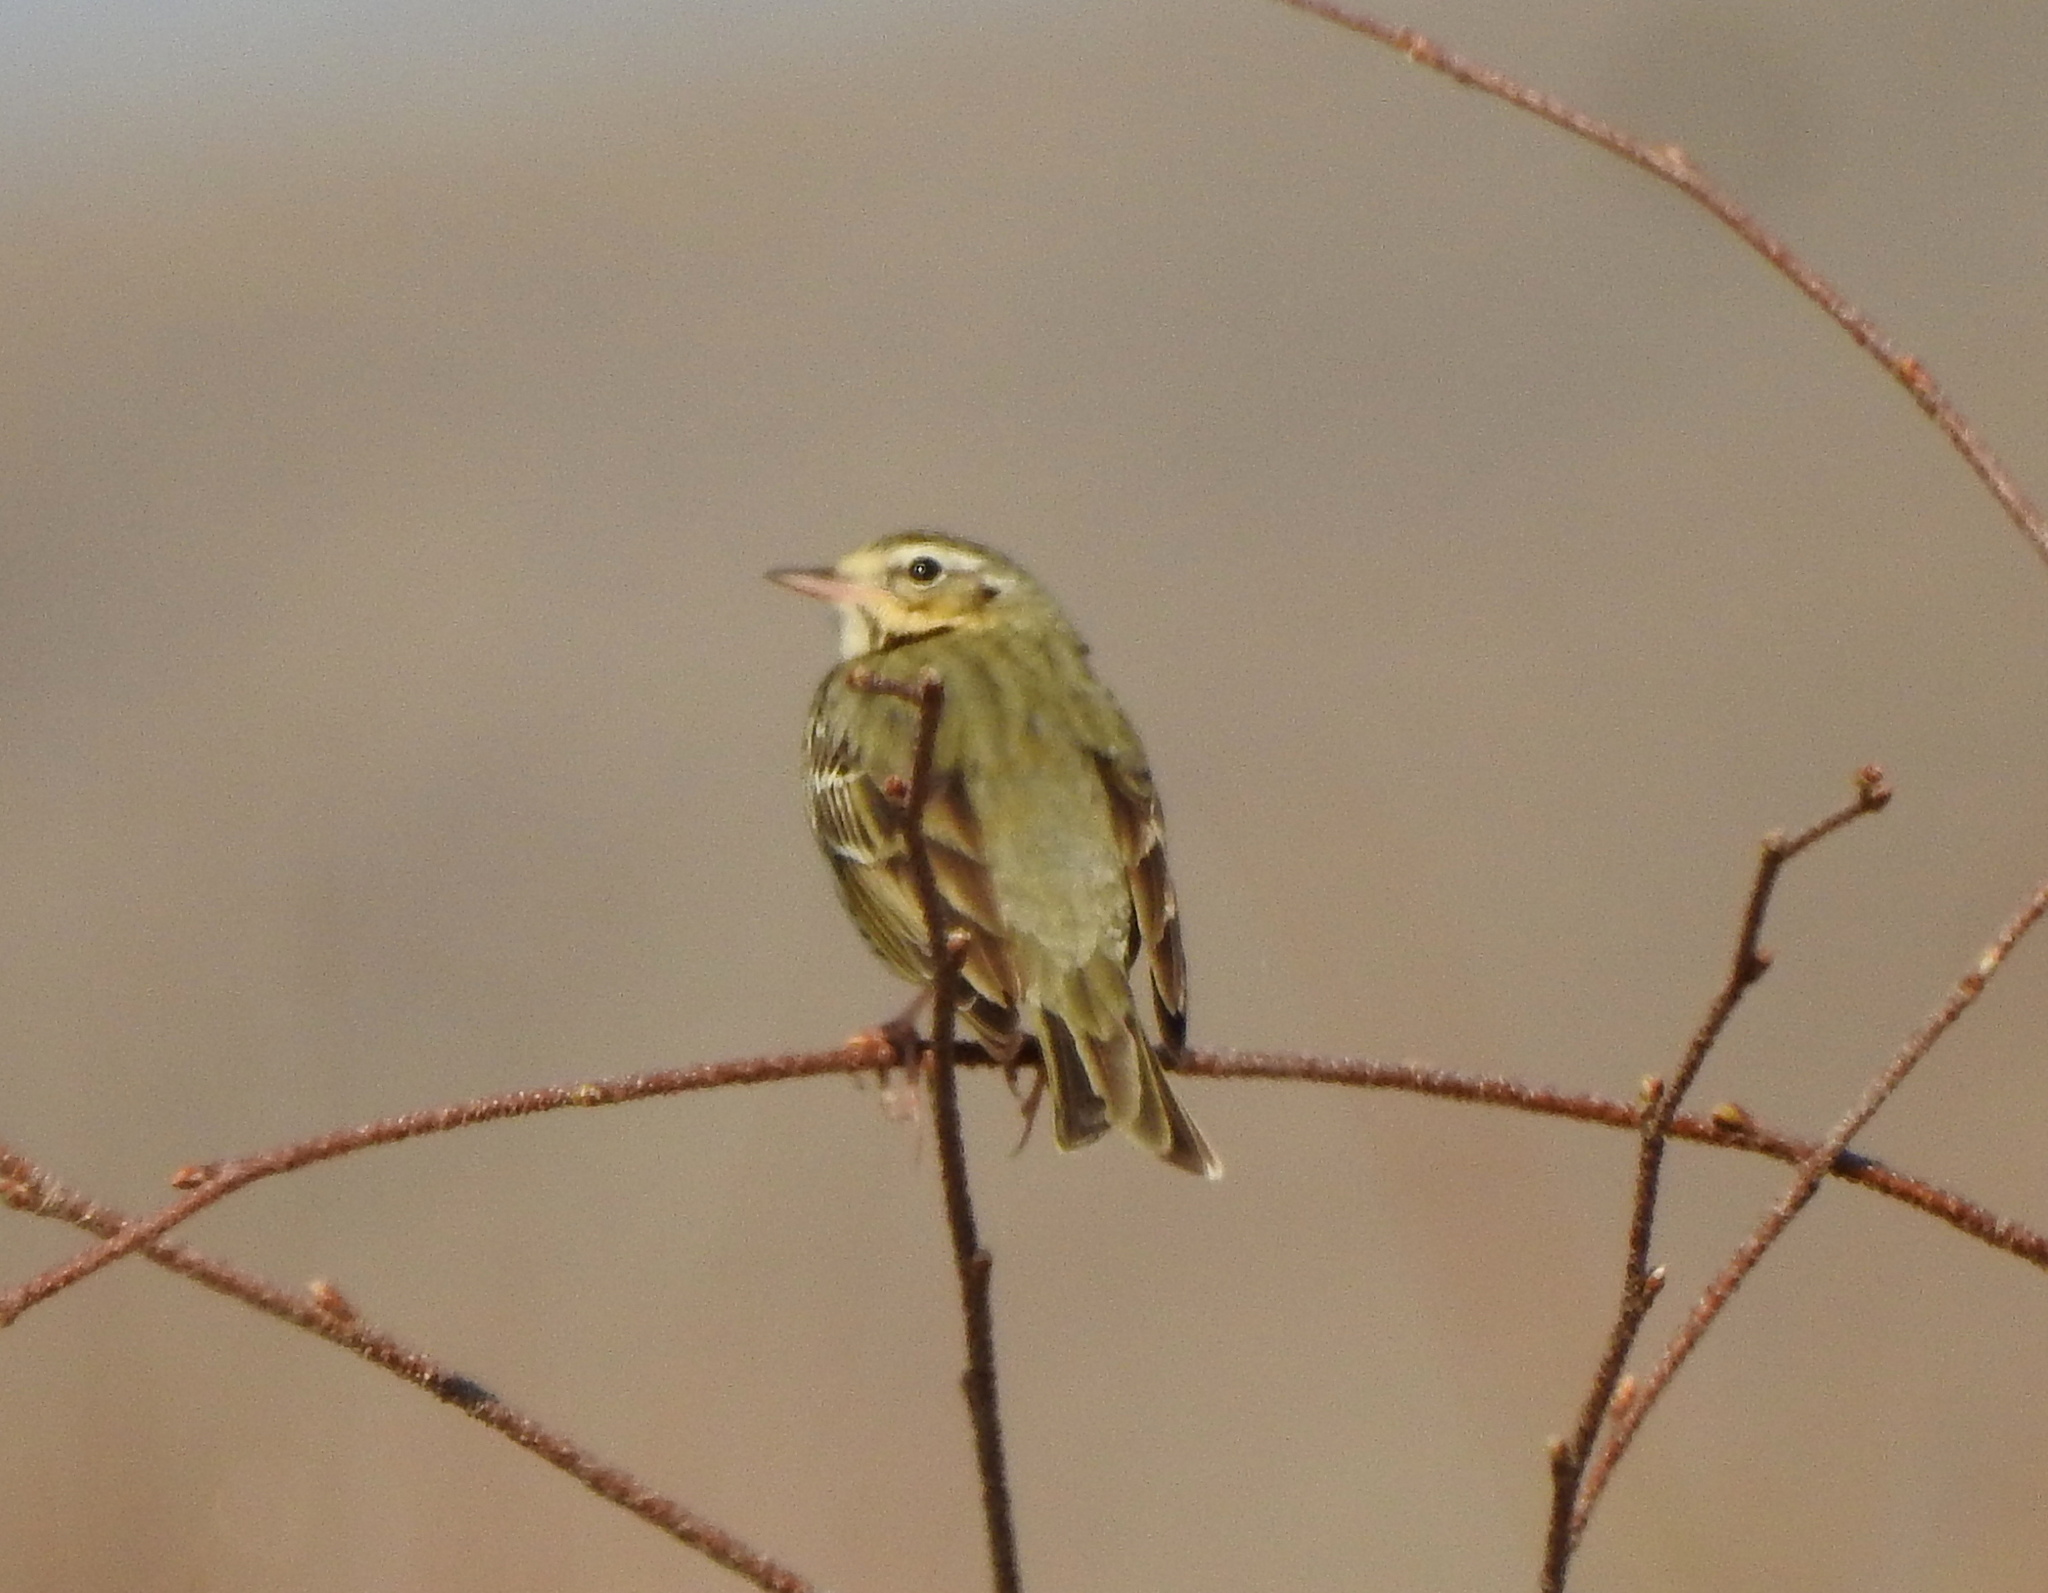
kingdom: Animalia
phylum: Chordata
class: Aves
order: Passeriformes
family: Motacillidae
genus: Anthus
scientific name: Anthus hodgsoni
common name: Olive-backed pipit
